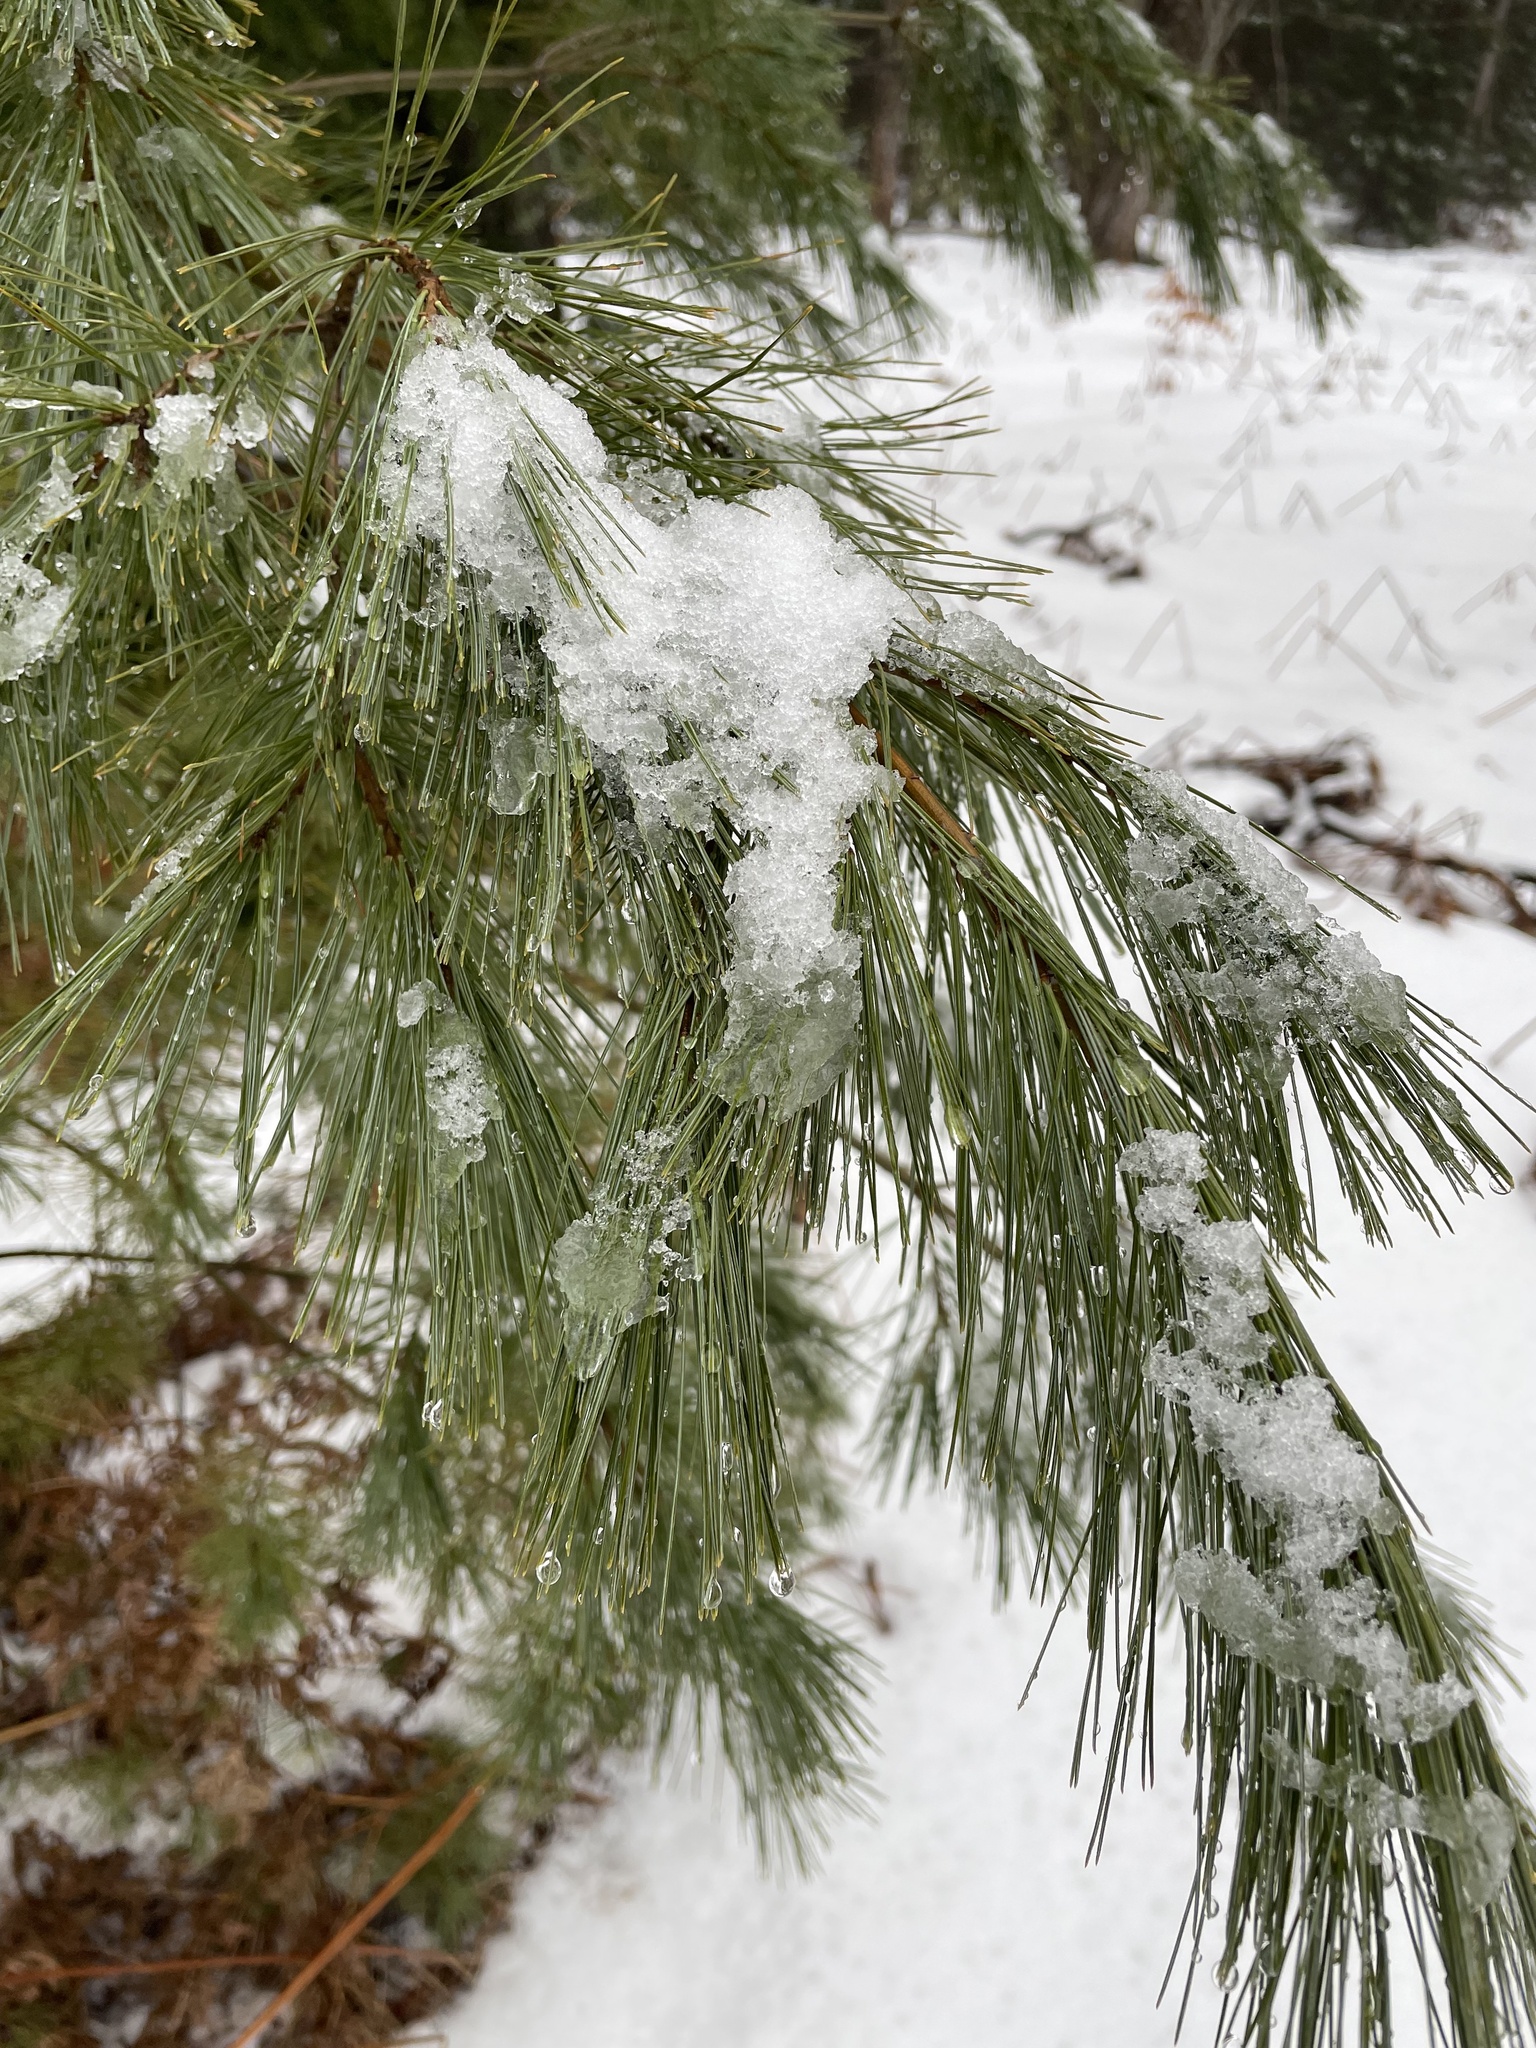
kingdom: Plantae
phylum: Tracheophyta
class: Pinopsida
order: Pinales
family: Pinaceae
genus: Pinus
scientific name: Pinus strobus
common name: Weymouth pine
